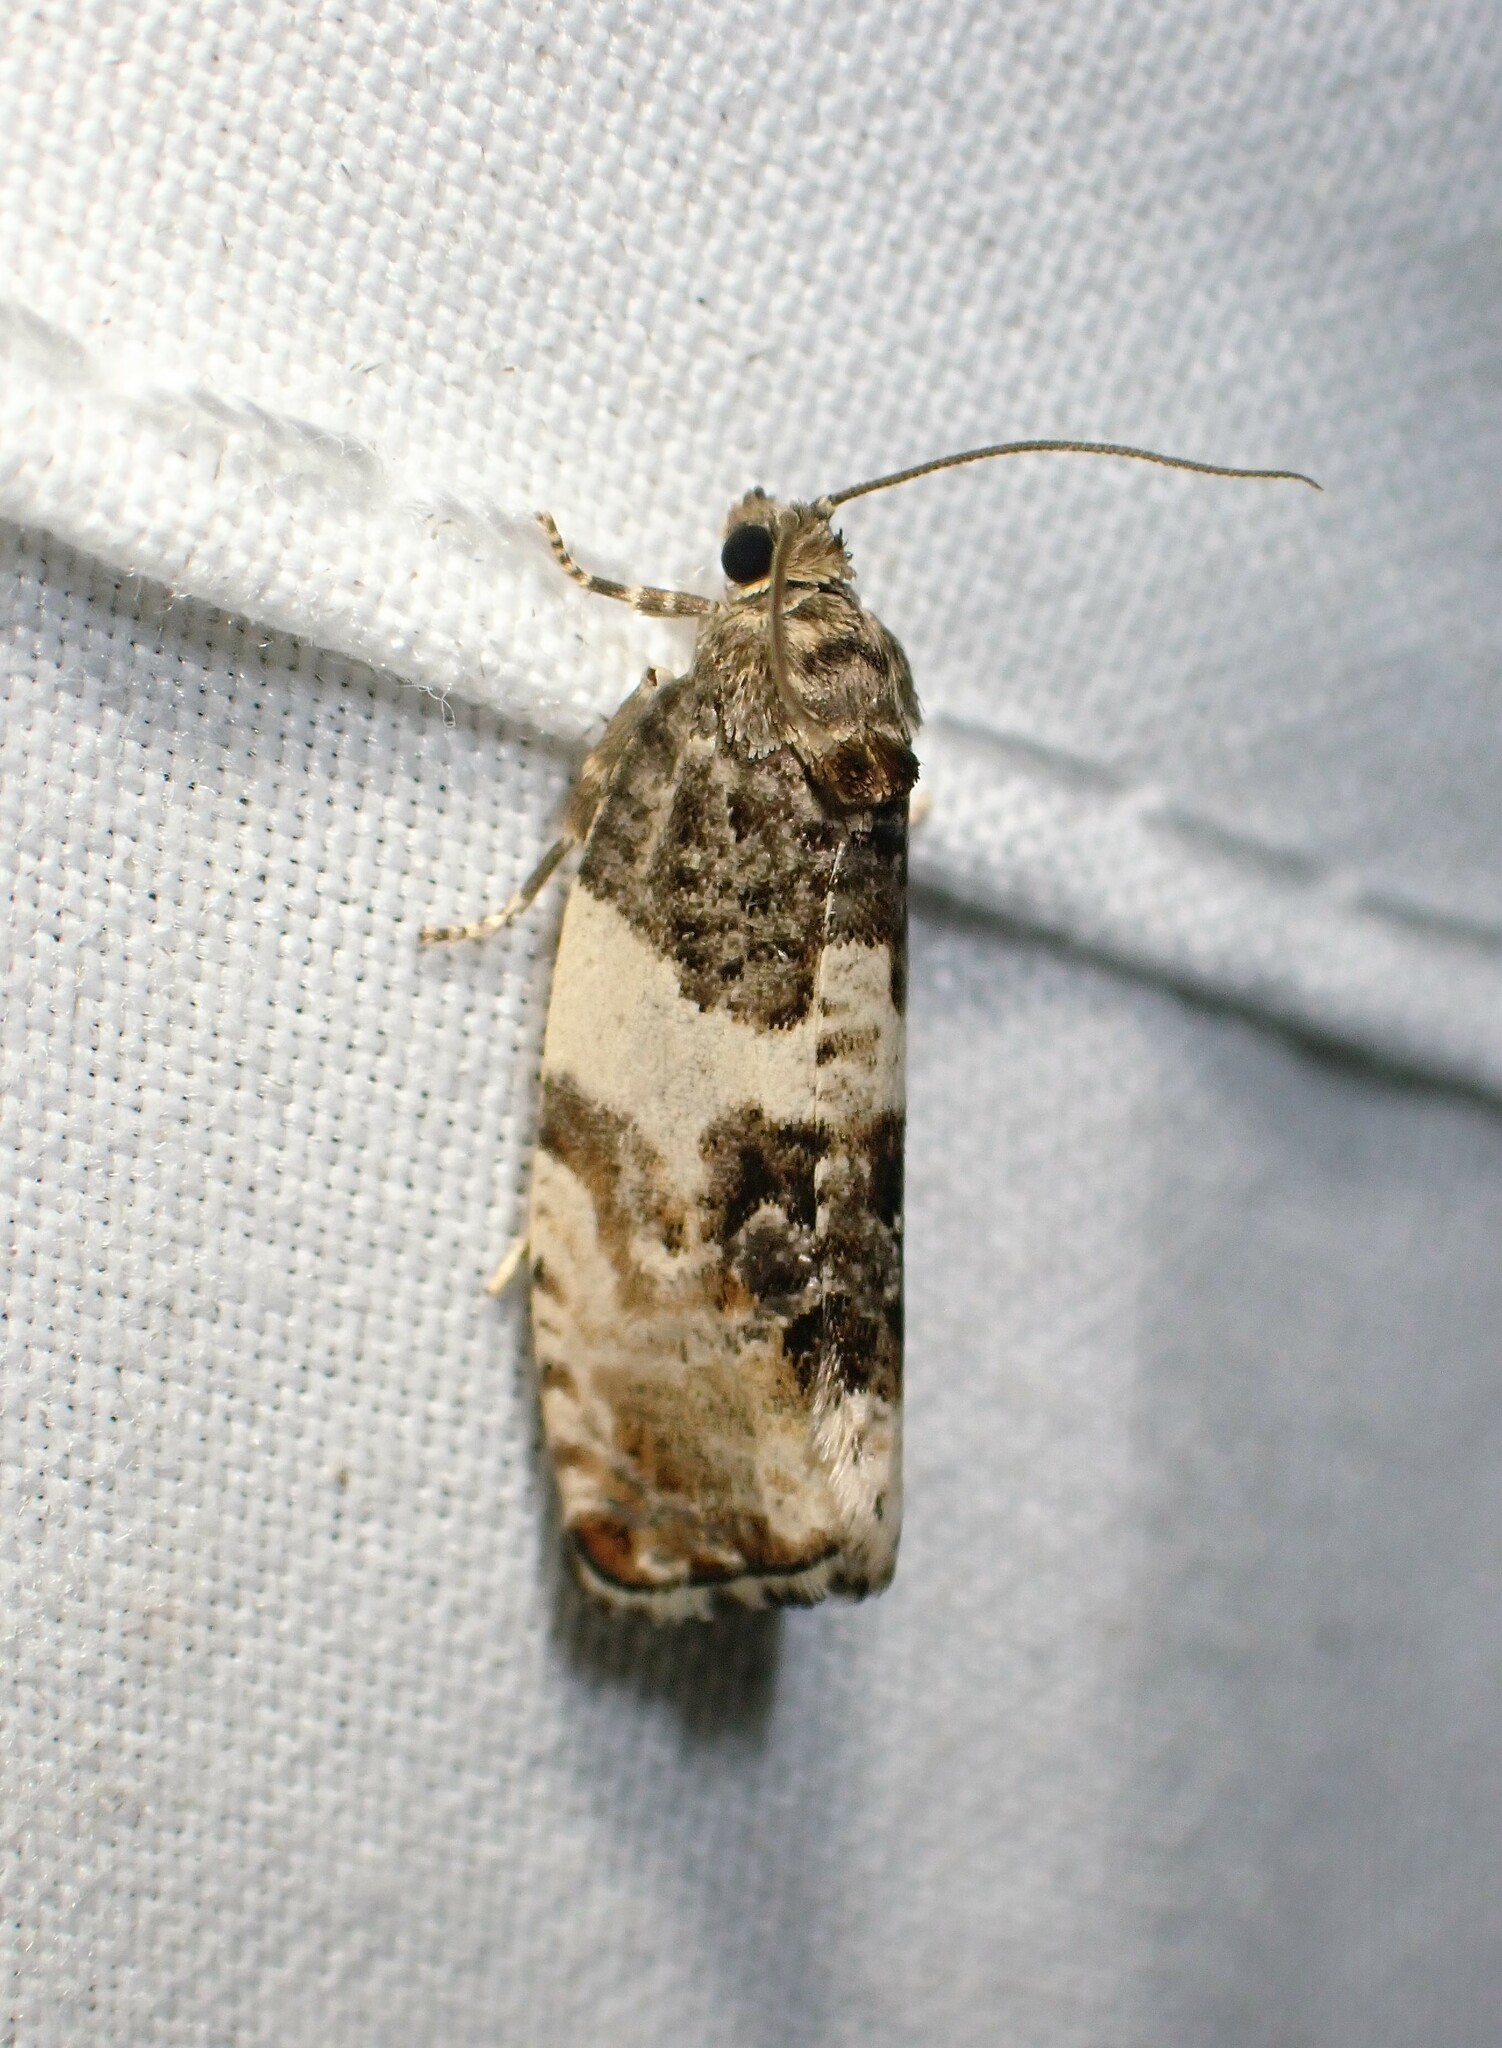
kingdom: Animalia
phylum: Arthropoda
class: Insecta
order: Lepidoptera
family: Tortricidae
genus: Pseudosciaphila
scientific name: Pseudosciaphila duplex
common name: Poplar leafroller moth
